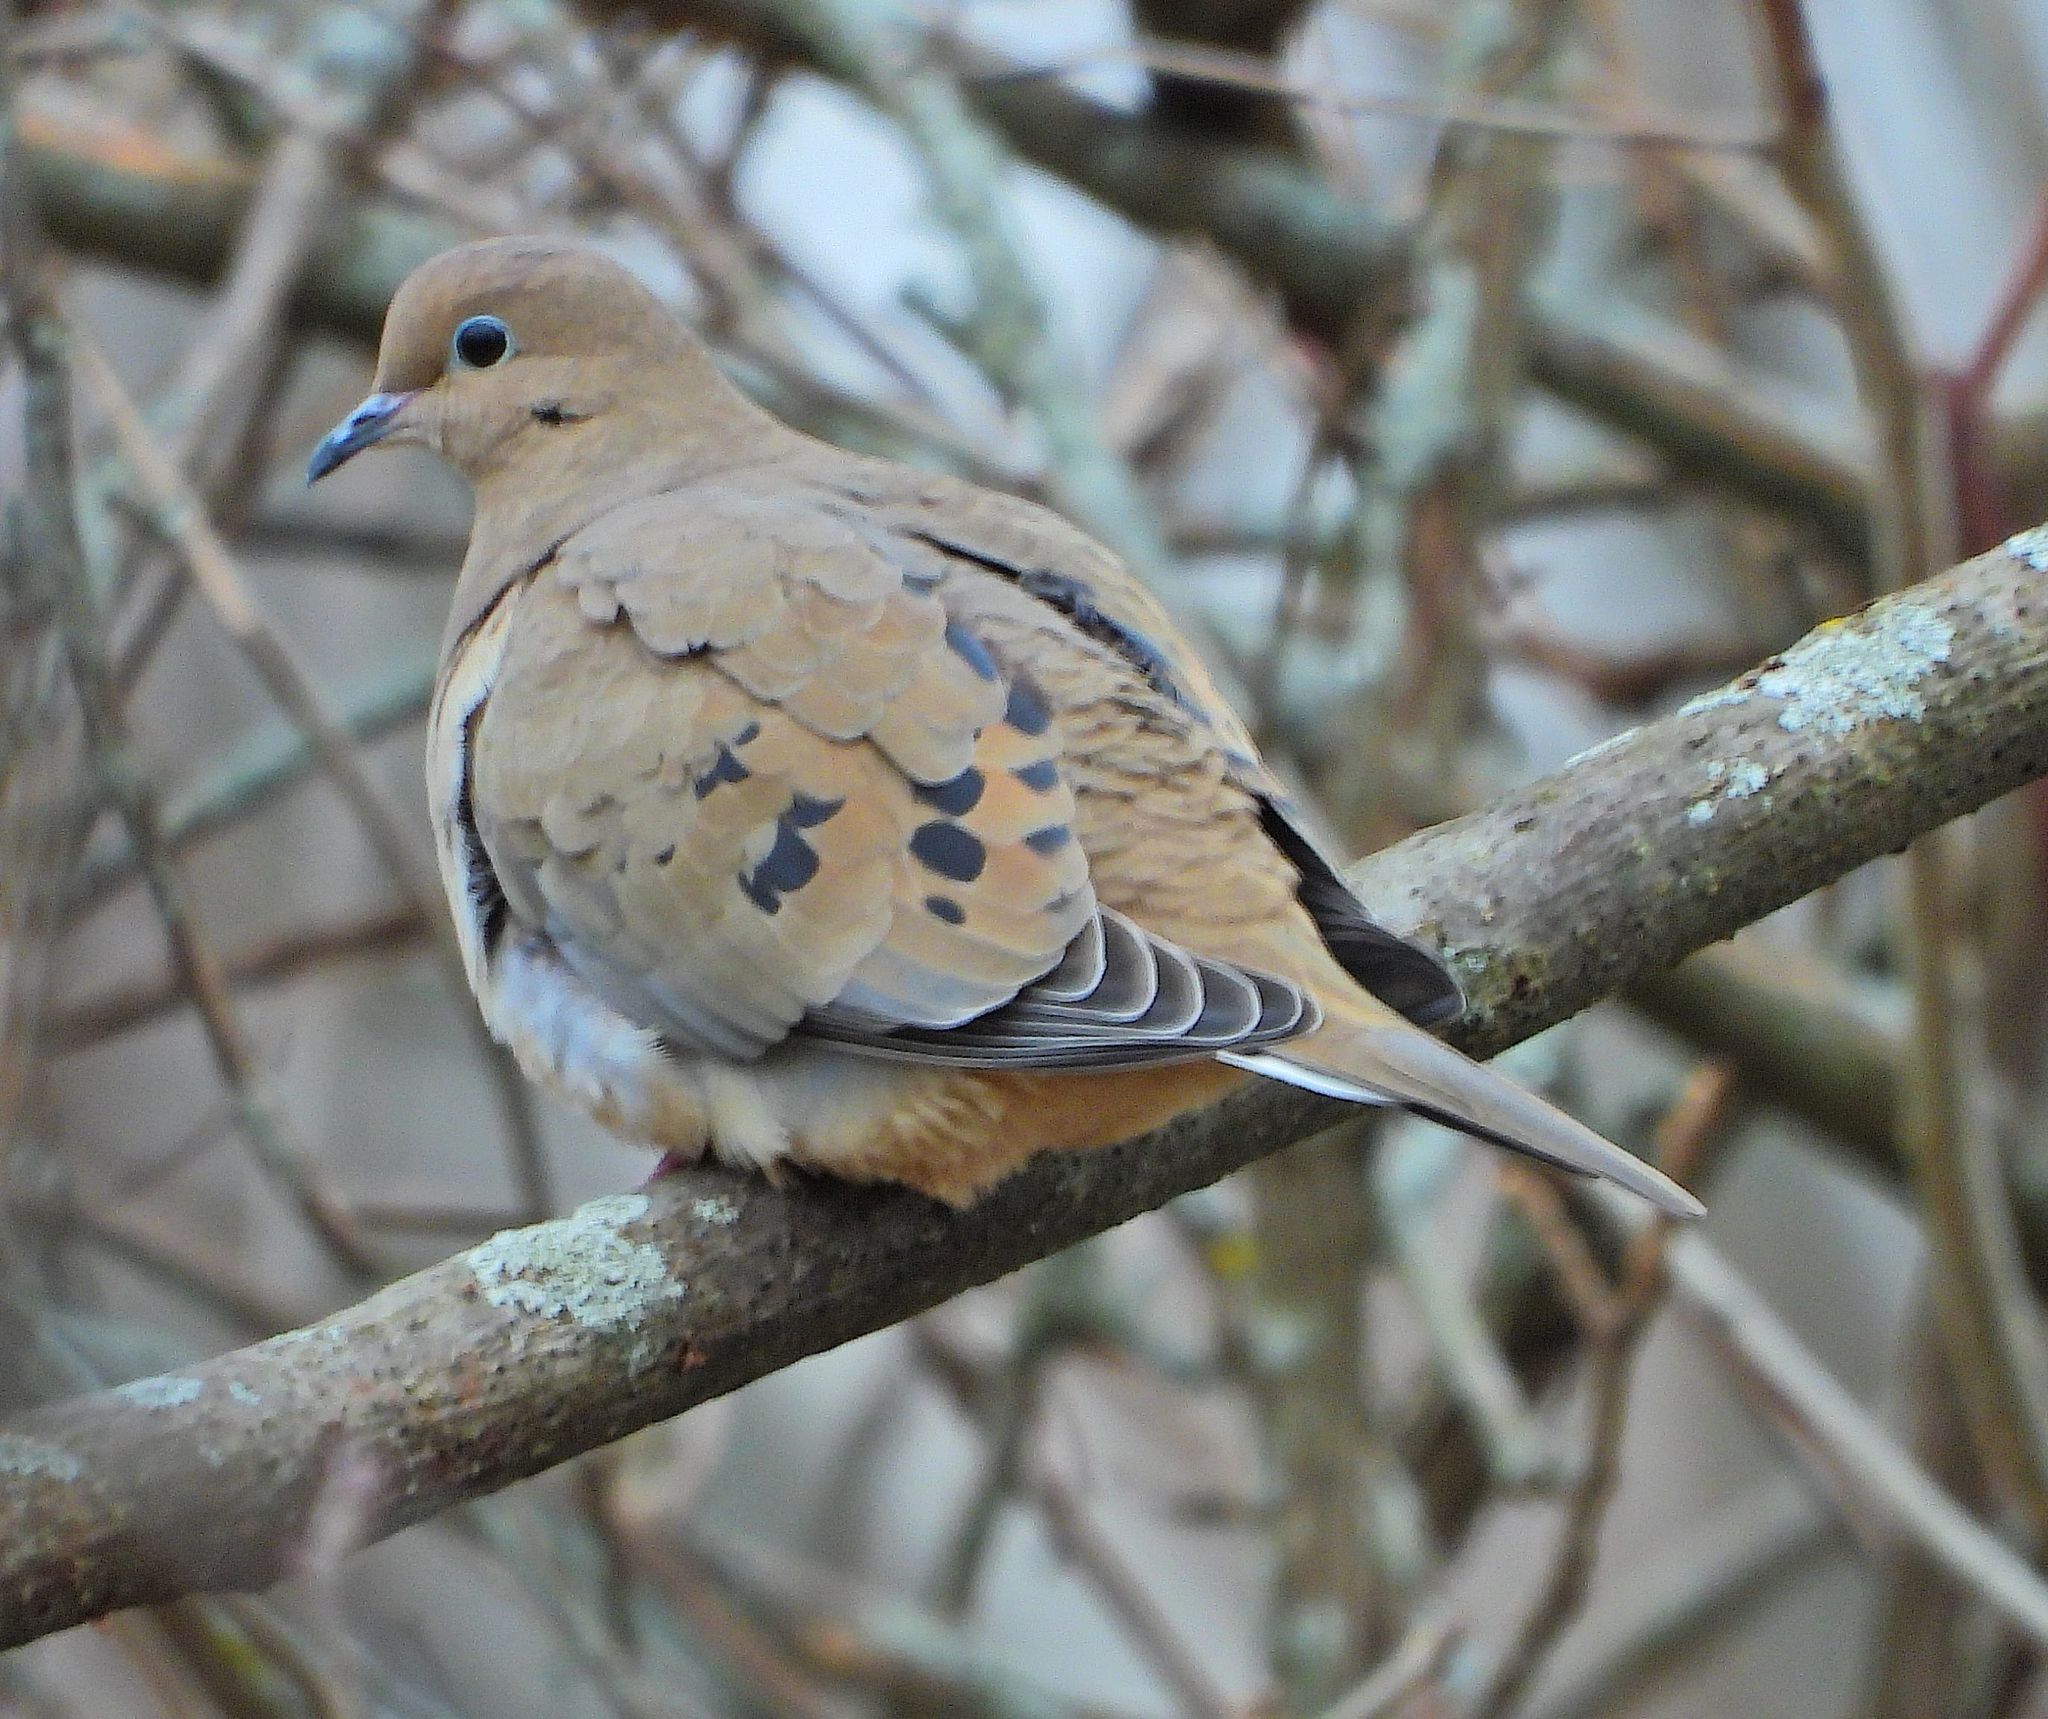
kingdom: Animalia
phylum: Chordata
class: Aves
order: Columbiformes
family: Columbidae
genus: Zenaida
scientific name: Zenaida macroura
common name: Mourning dove
